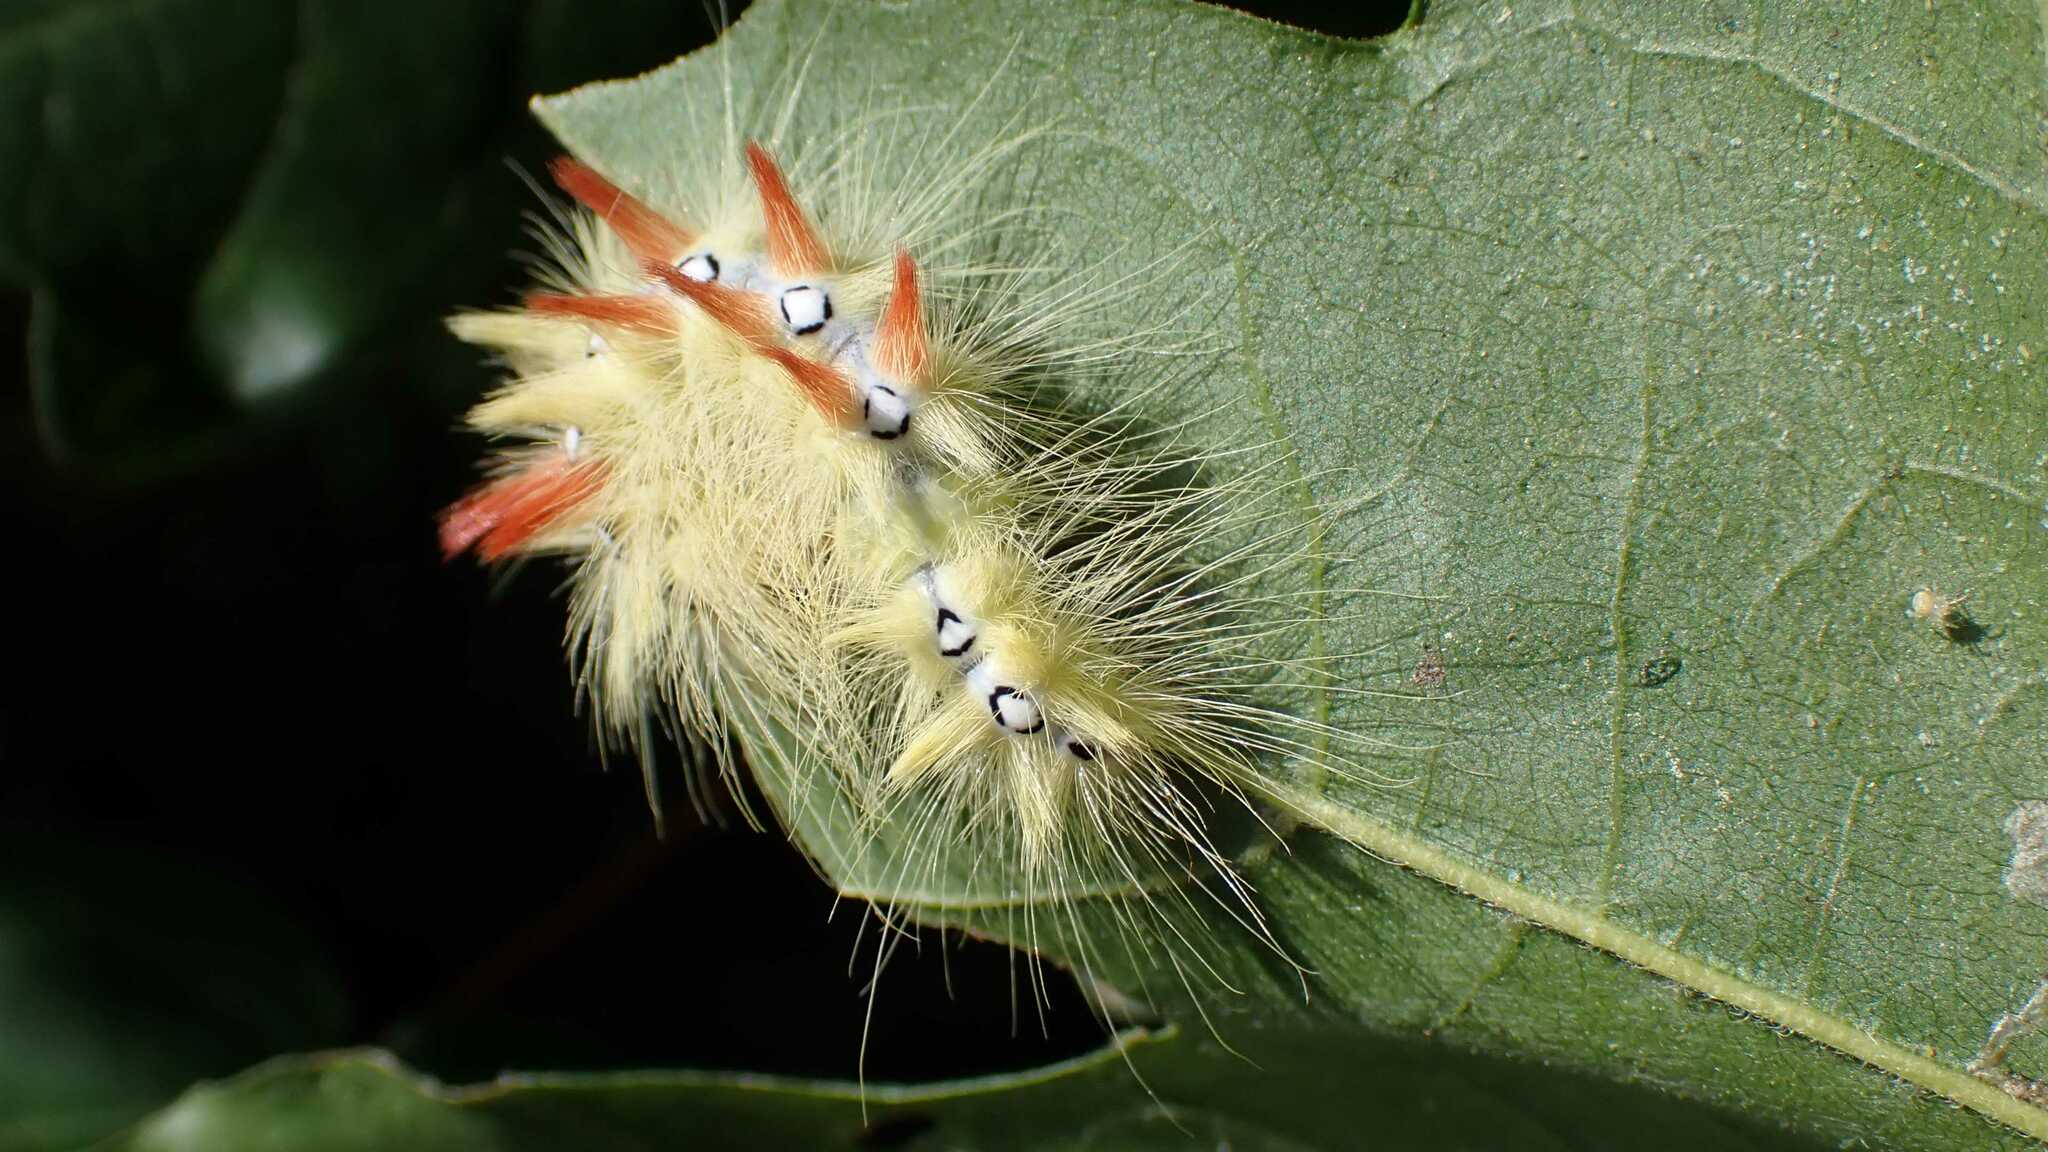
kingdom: Animalia
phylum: Arthropoda
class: Insecta
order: Lepidoptera
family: Noctuidae
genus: Acronicta
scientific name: Acronicta aceris
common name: Sycamore
